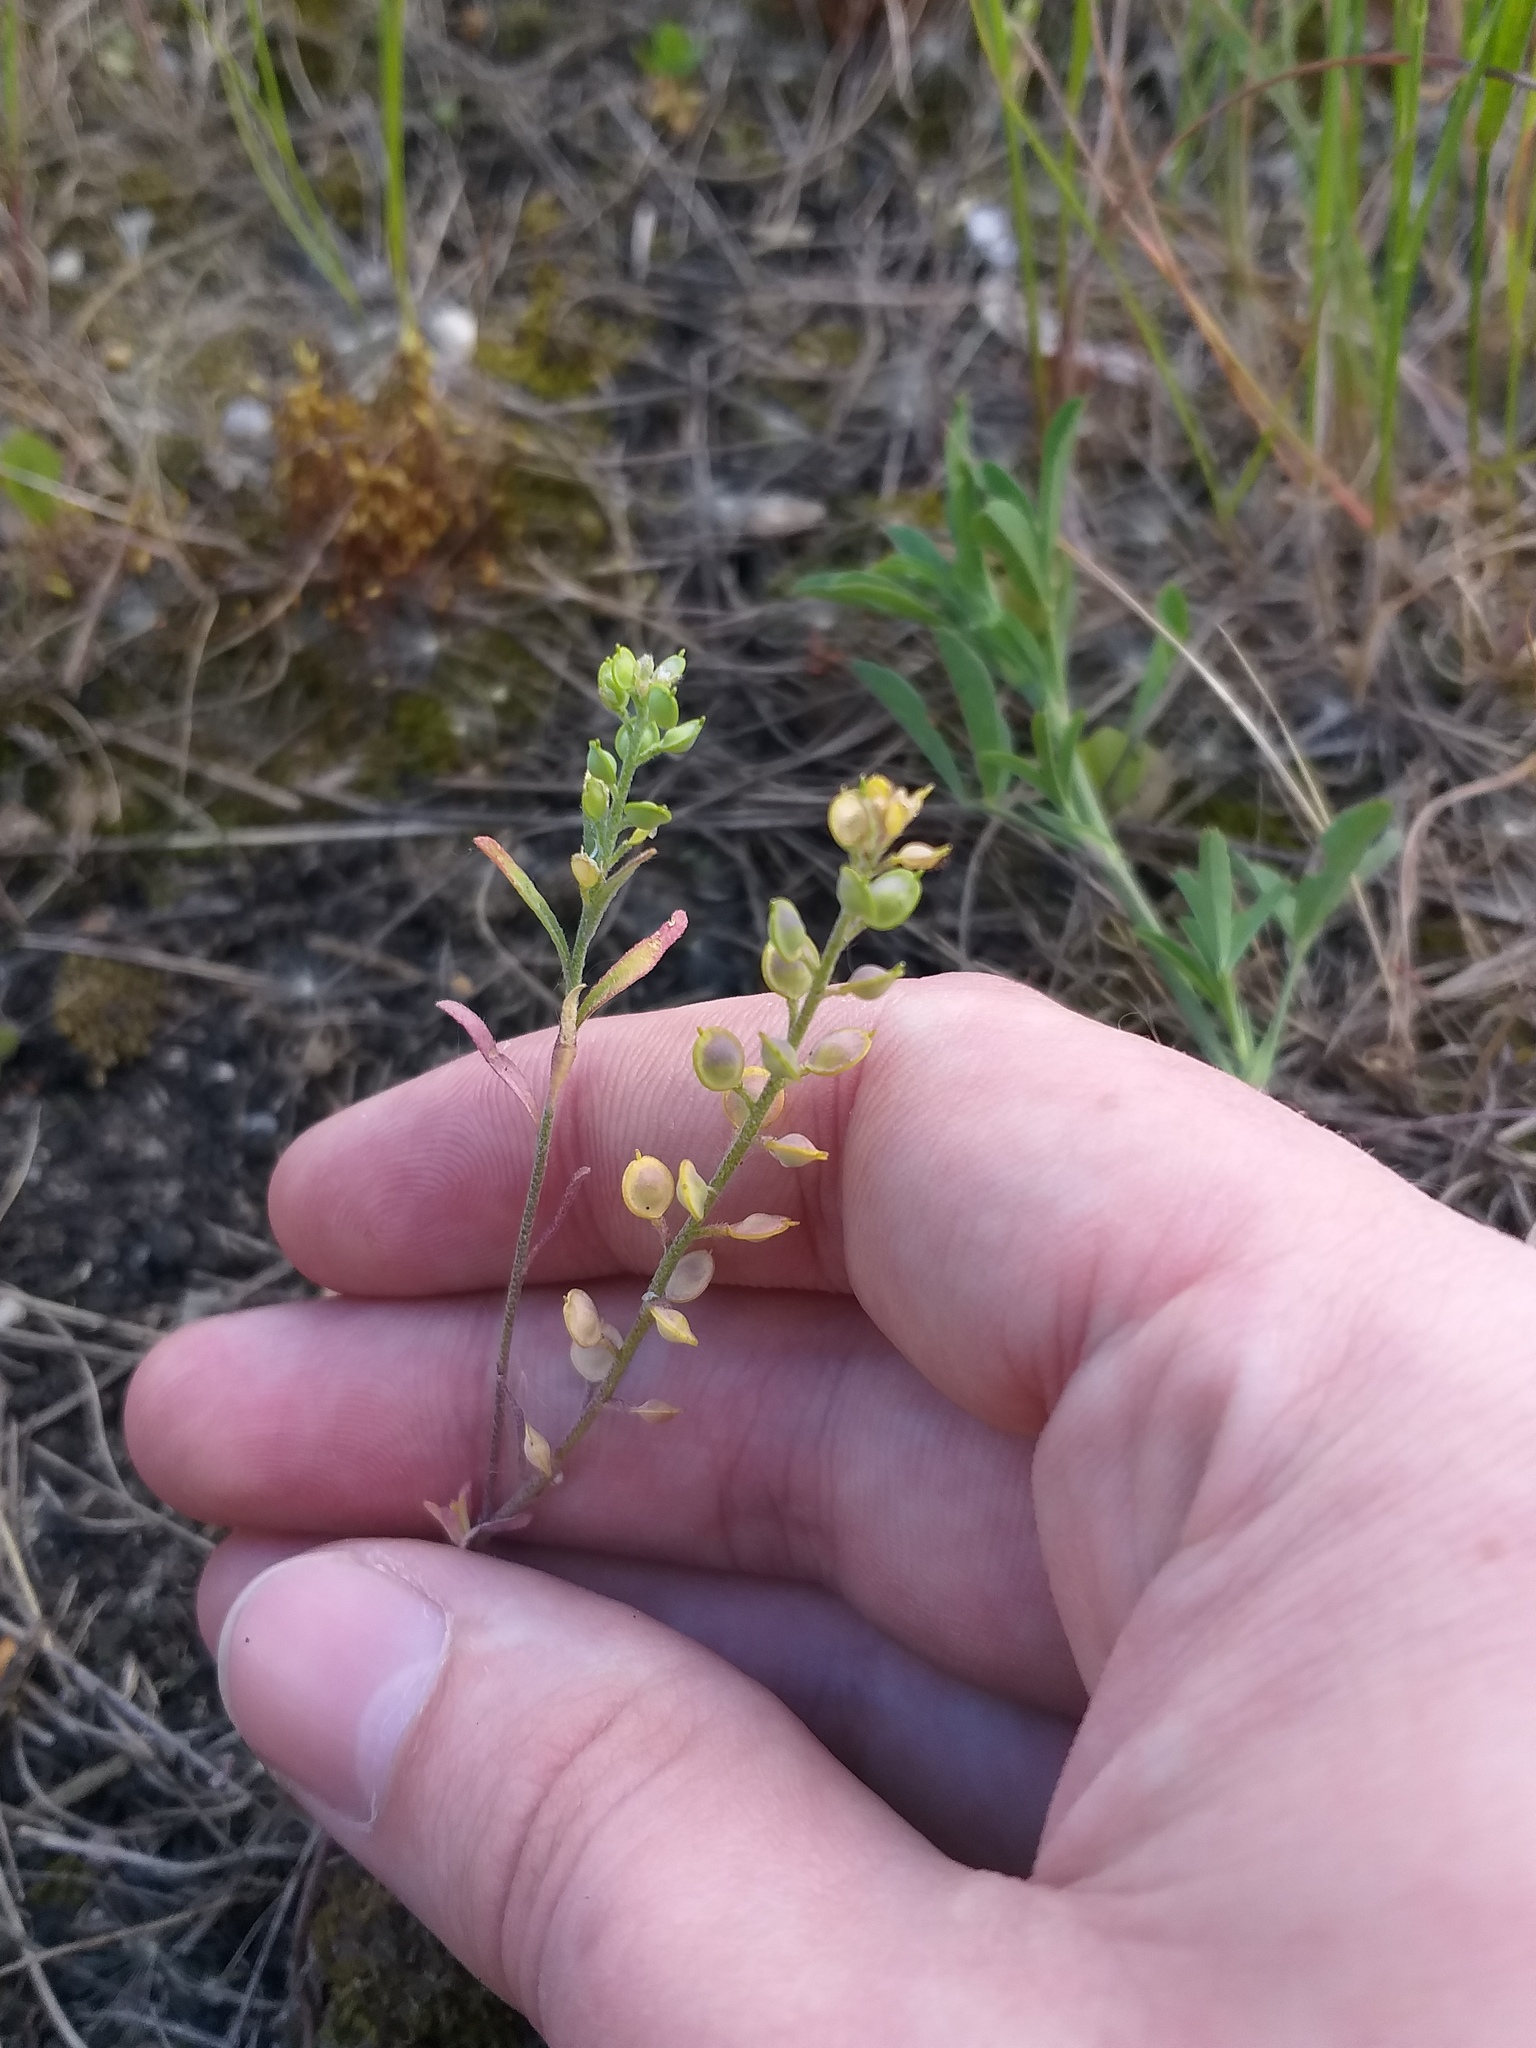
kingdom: Plantae
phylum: Tracheophyta
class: Magnoliopsida
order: Brassicales
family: Brassicaceae
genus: Alyssum
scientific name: Alyssum turkestanicum
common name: Desert alyssum
